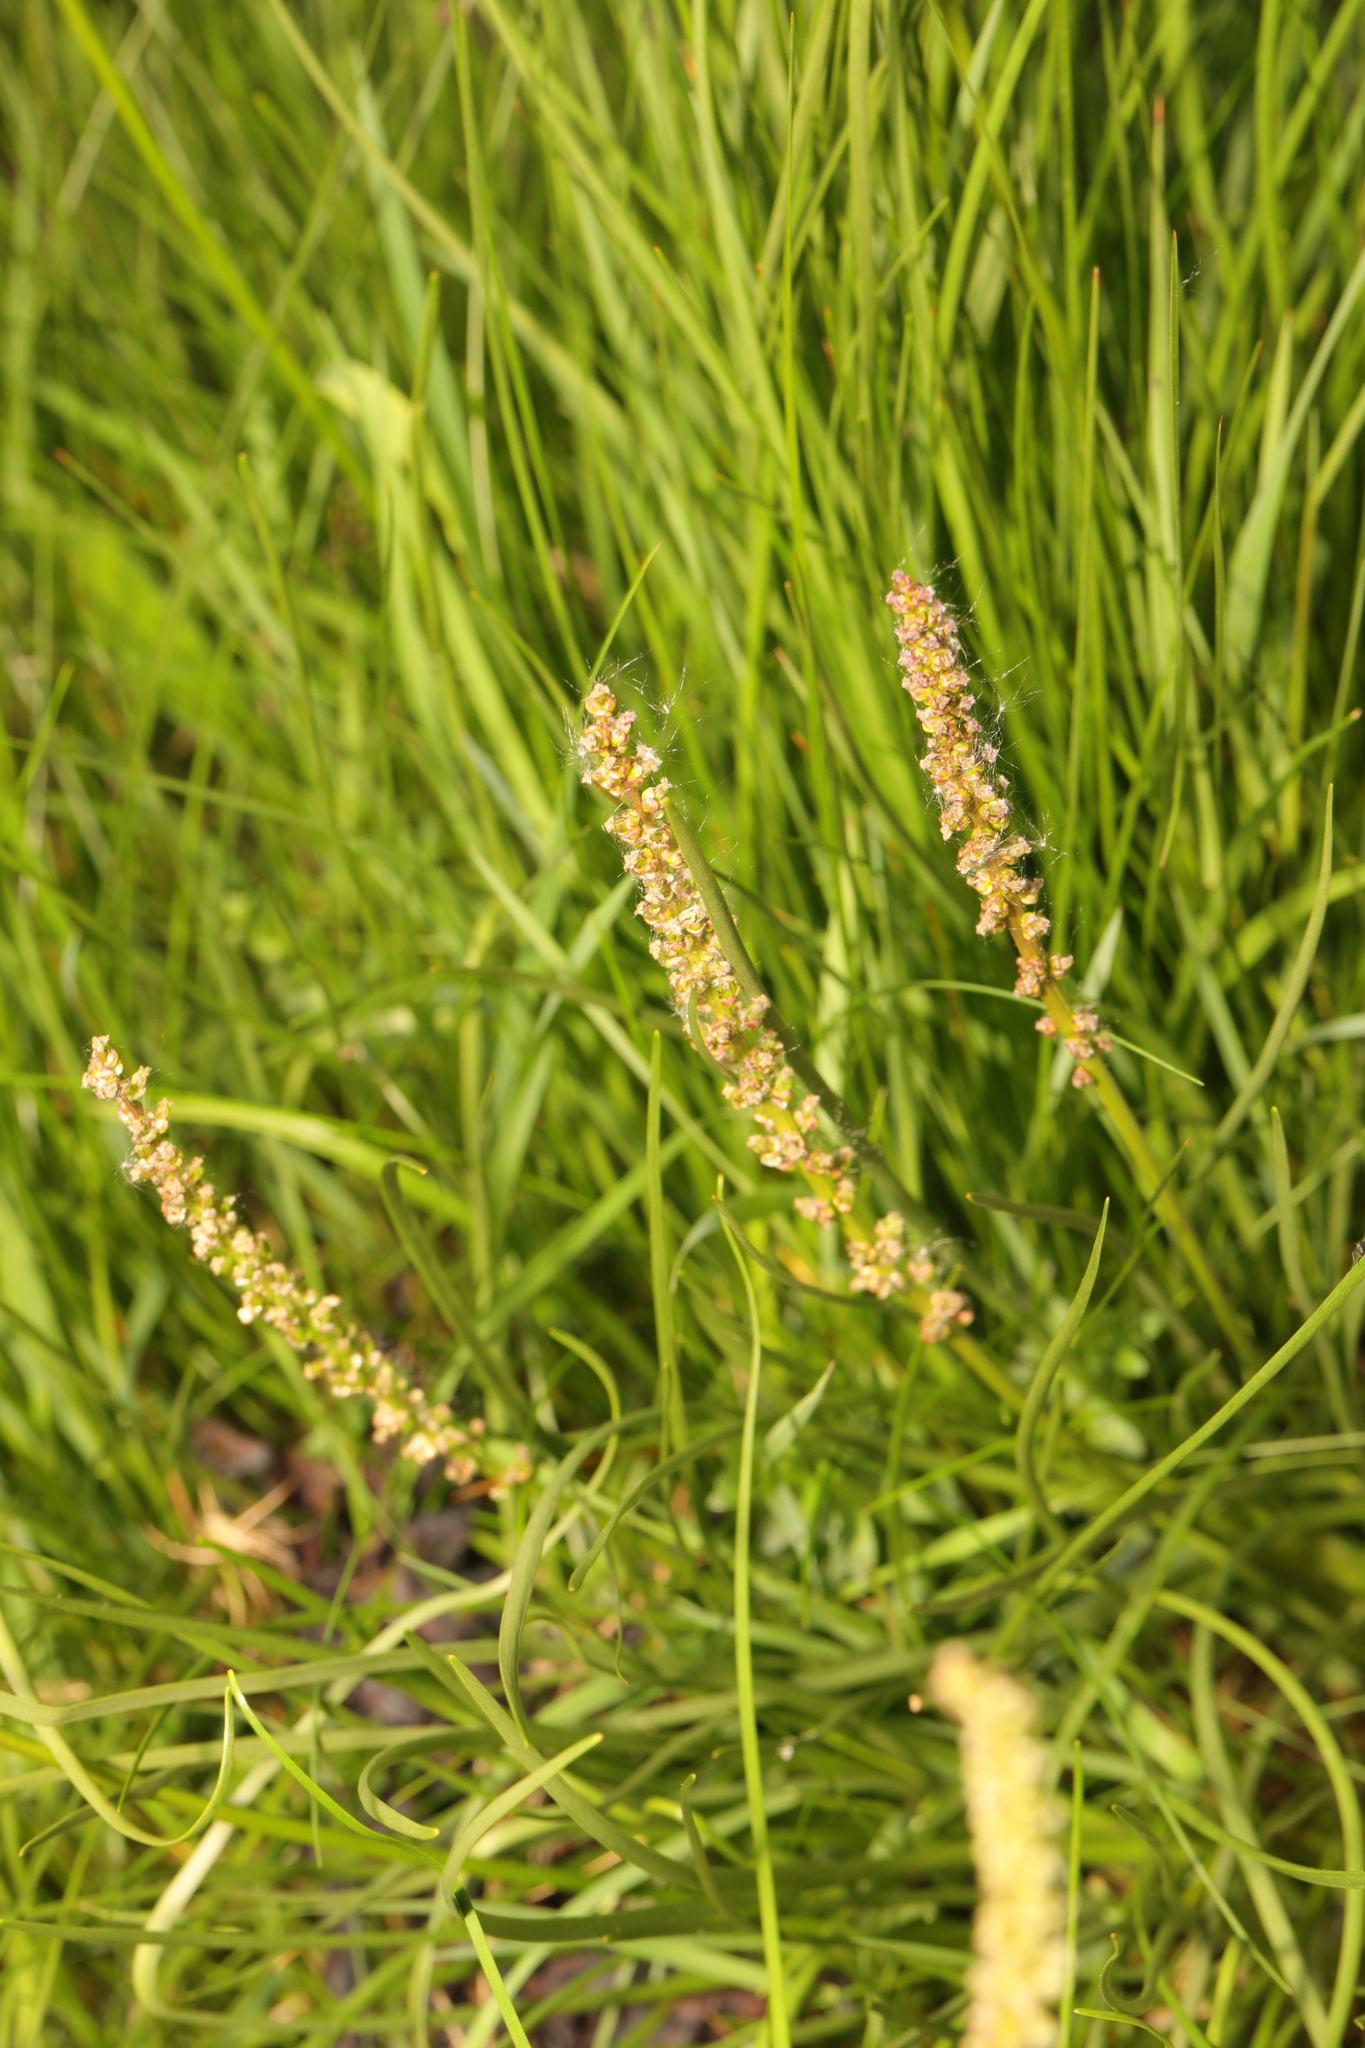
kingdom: Plantae
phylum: Tracheophyta
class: Liliopsida
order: Alismatales
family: Juncaginaceae
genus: Triglochin
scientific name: Triglochin maritima
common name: Sea arrowgrass
